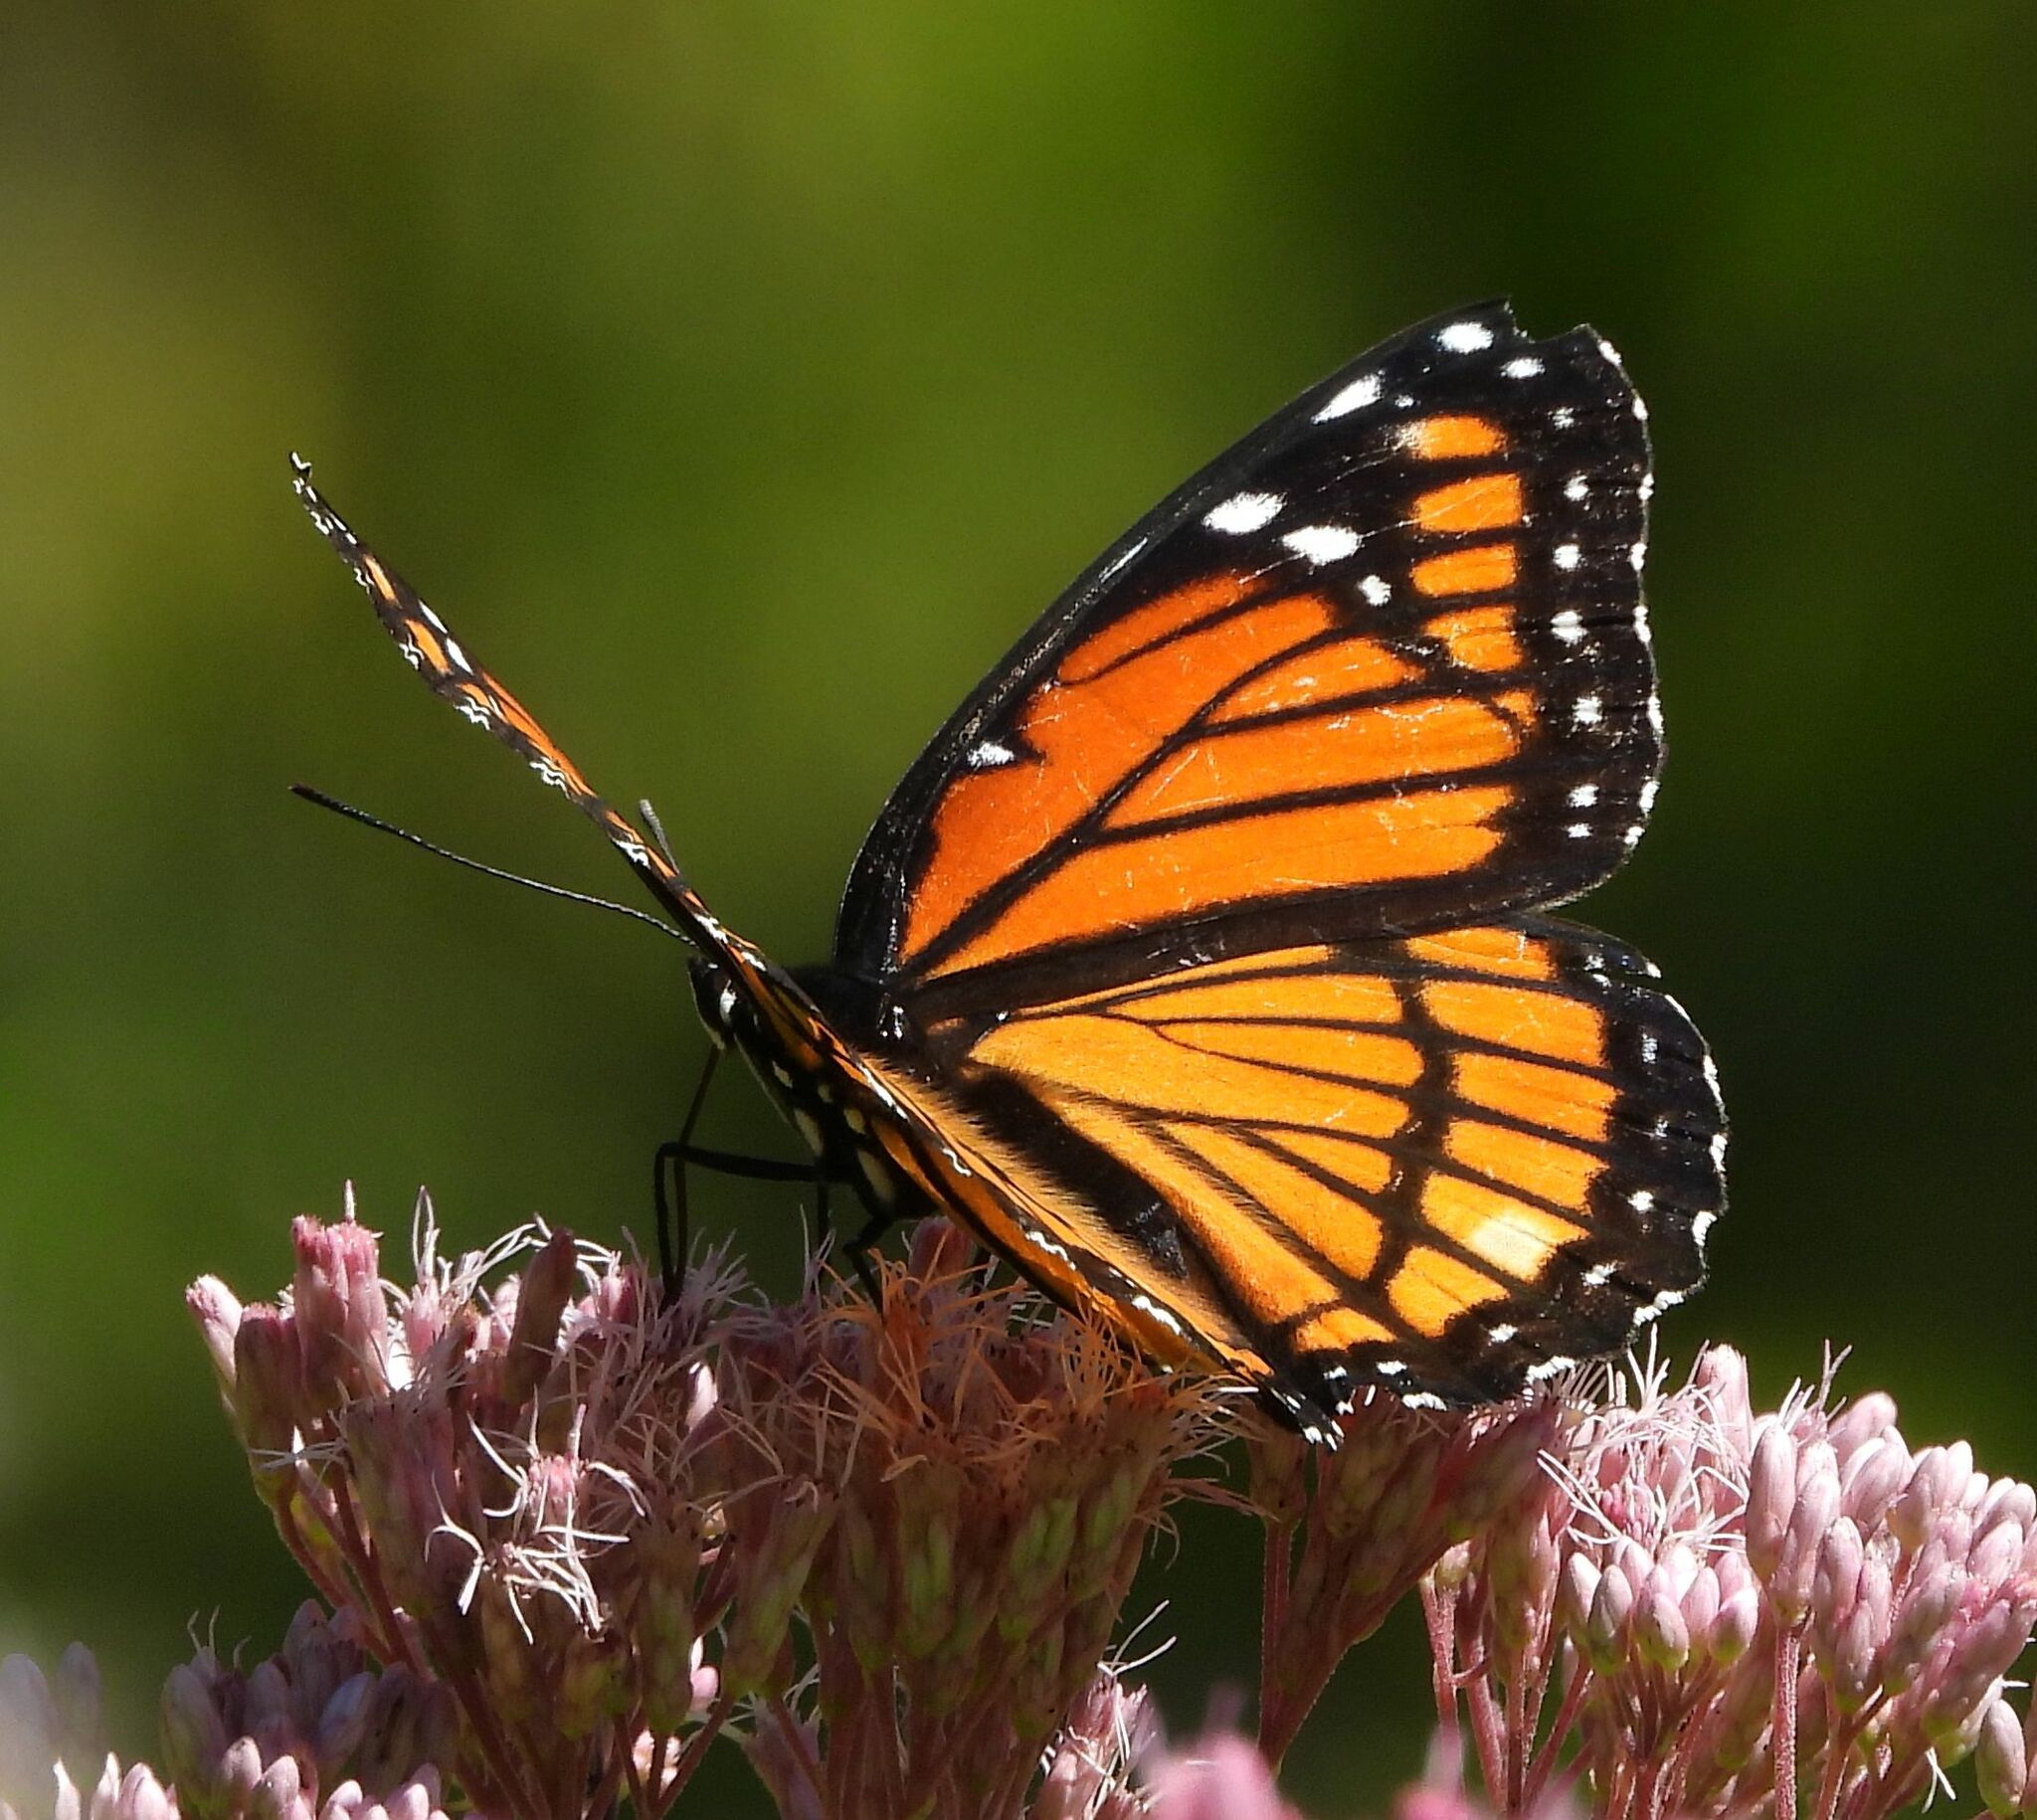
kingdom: Animalia
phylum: Arthropoda
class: Insecta
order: Lepidoptera
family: Nymphalidae
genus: Limenitis
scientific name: Limenitis archippus
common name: Viceroy
